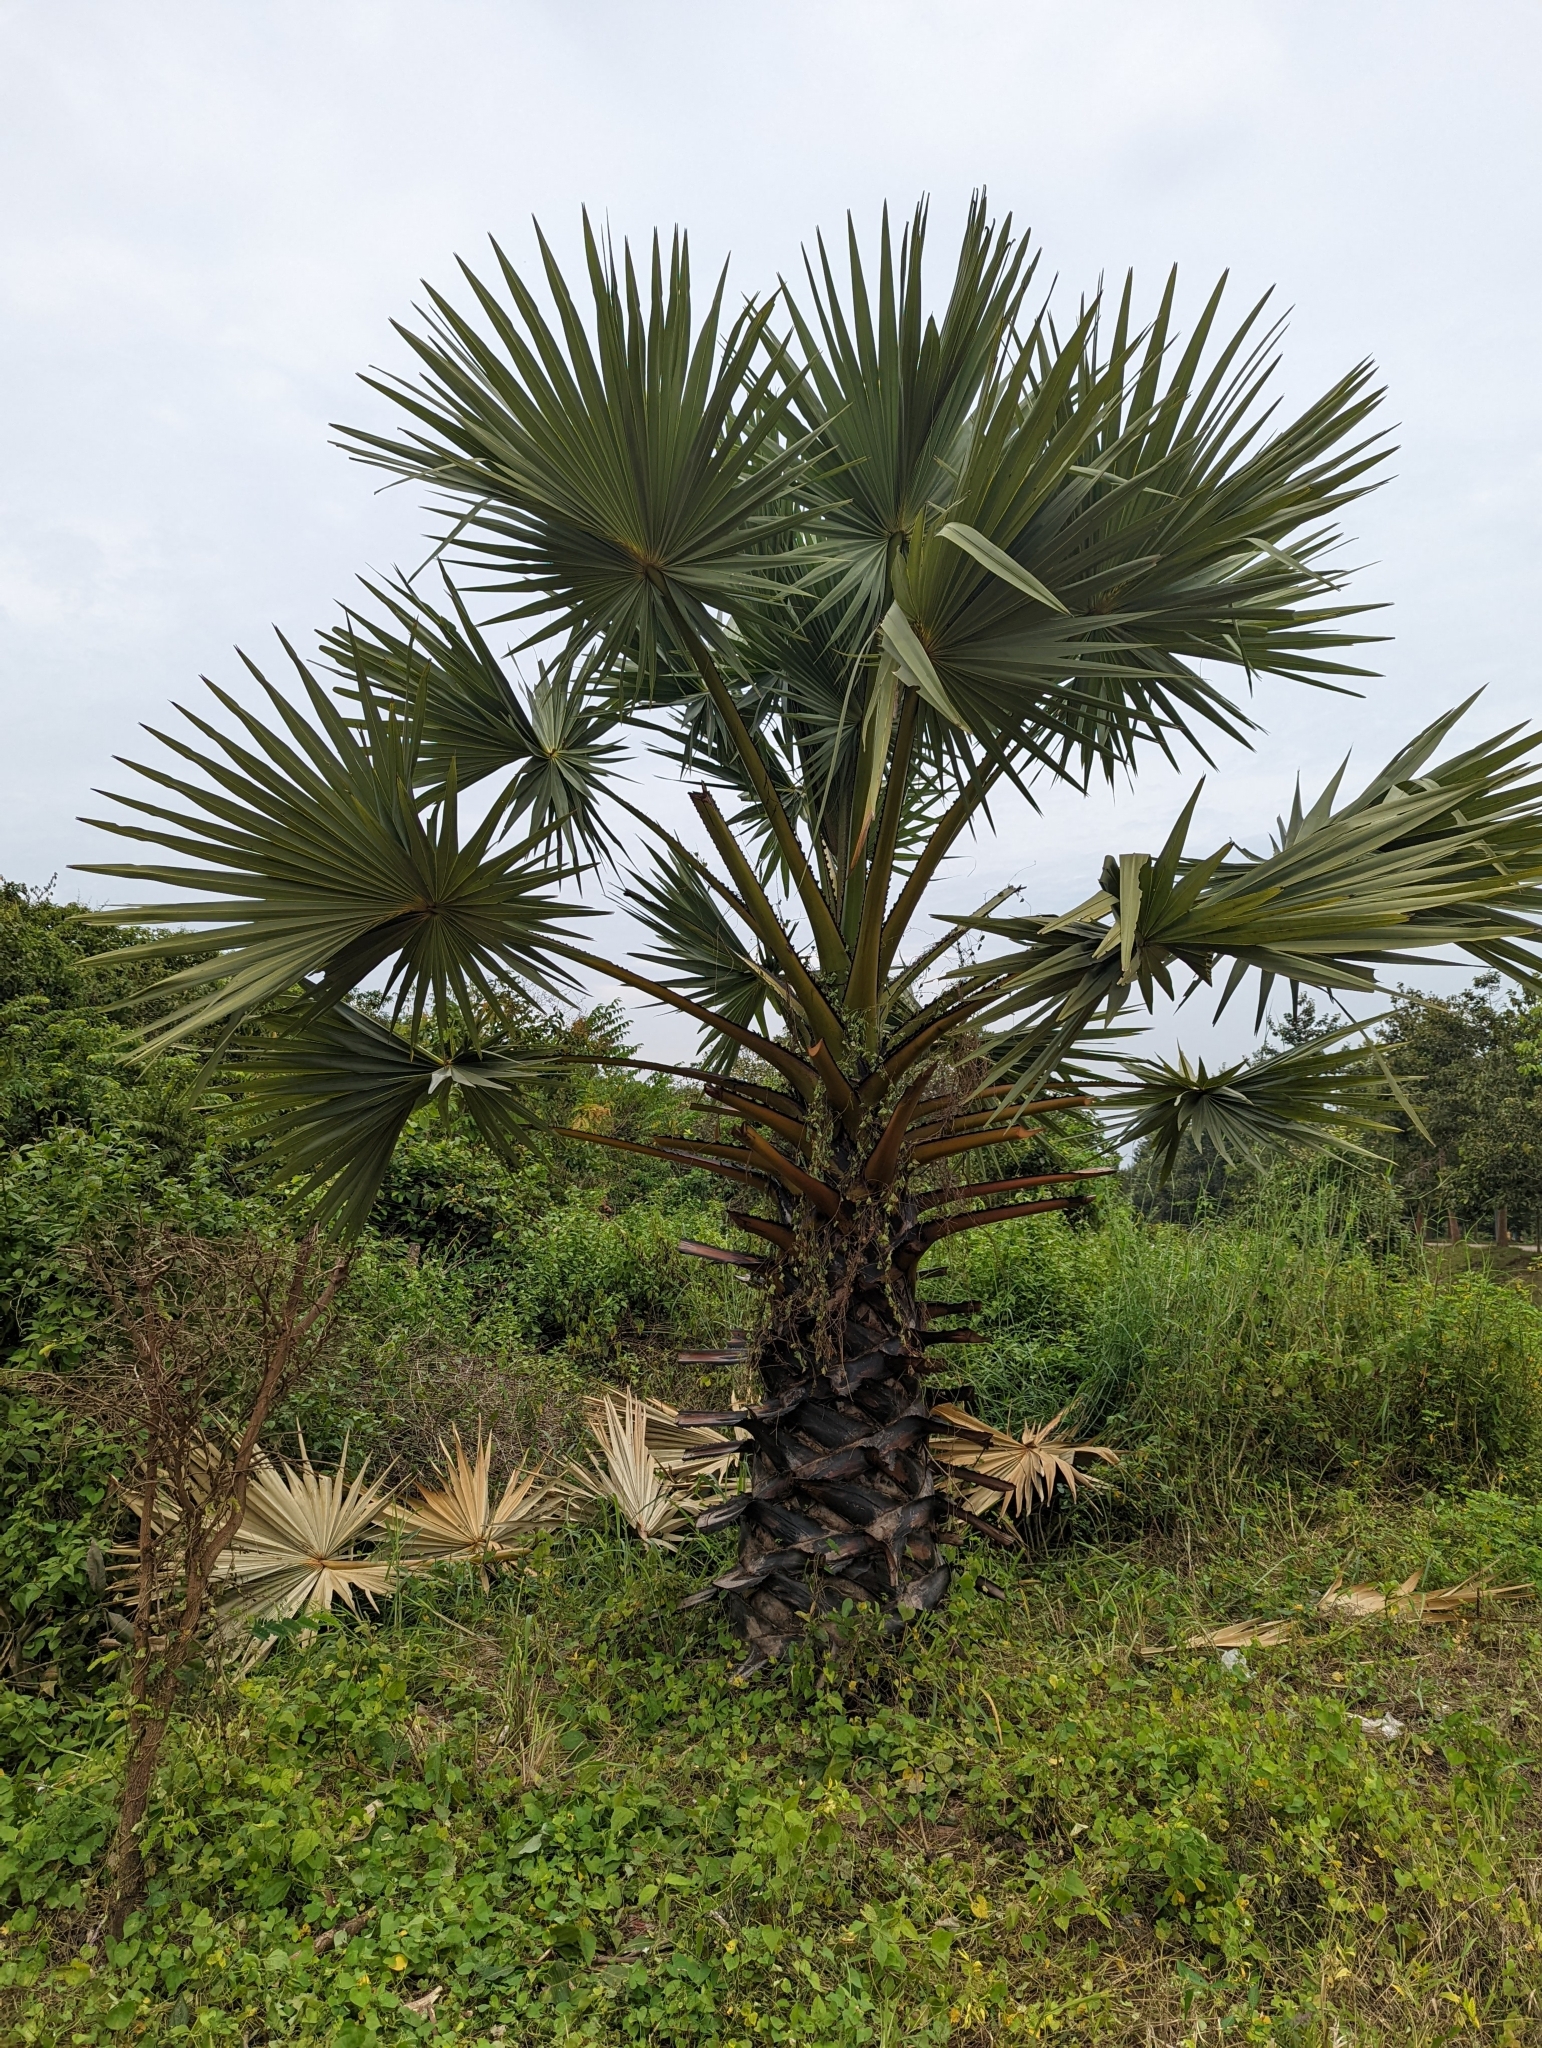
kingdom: Plantae
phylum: Tracheophyta
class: Liliopsida
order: Arecales
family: Arecaceae
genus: Borassus
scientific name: Borassus flabellifer
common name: Palmyra palm
